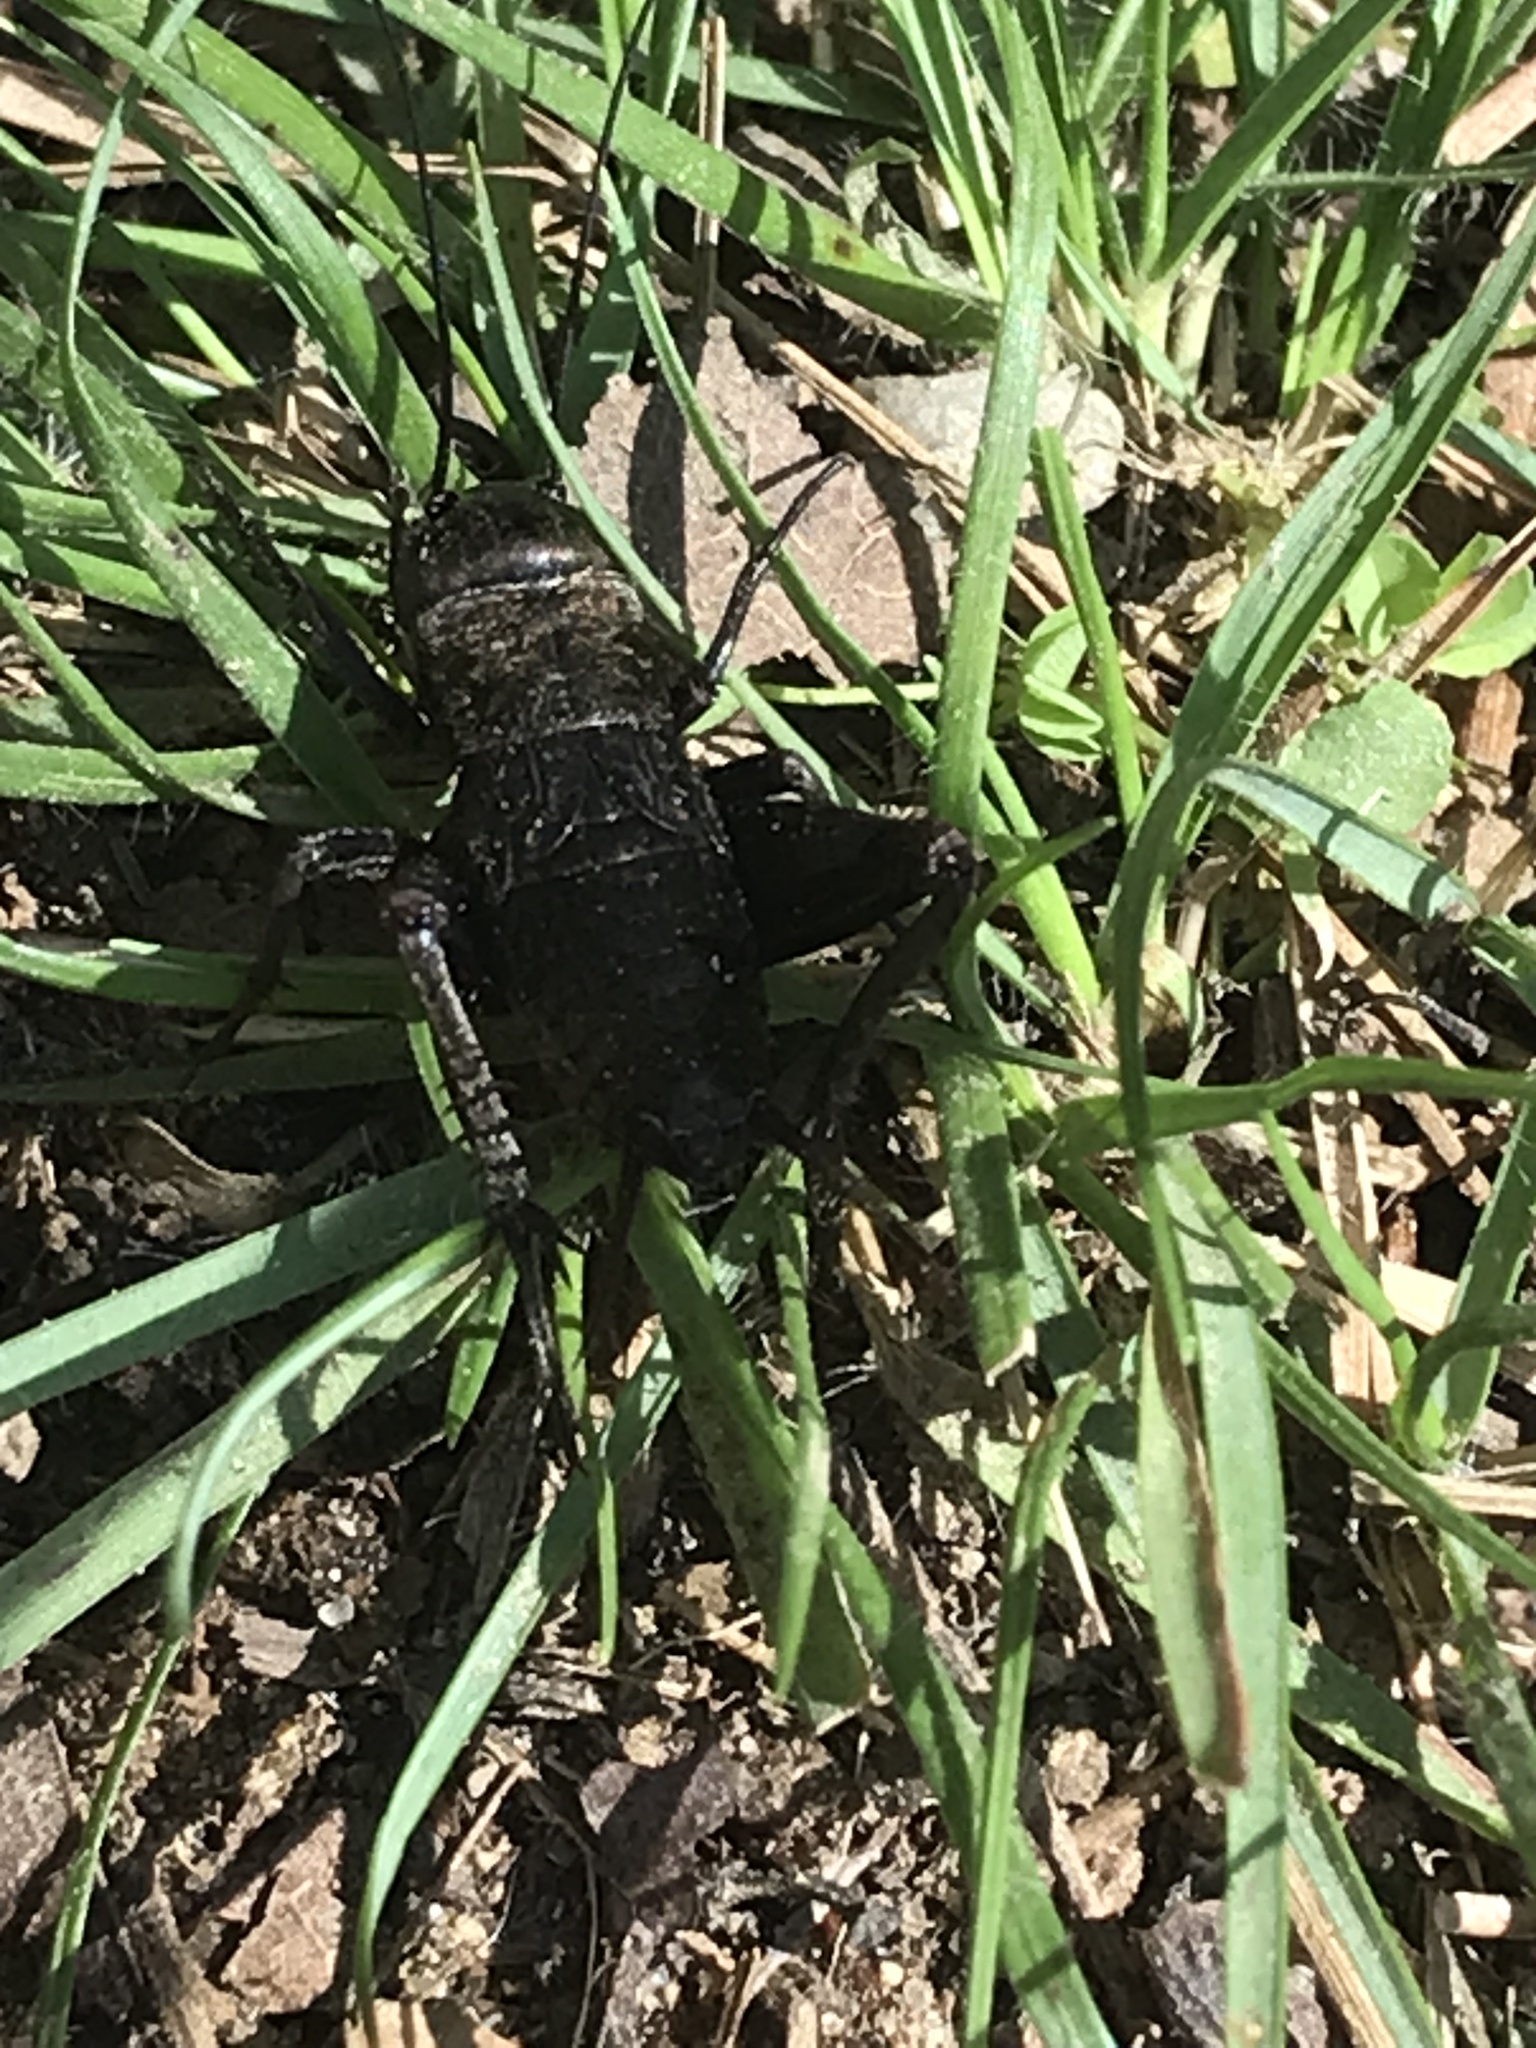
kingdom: Animalia
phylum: Arthropoda
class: Insecta
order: Orthoptera
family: Gryllidae
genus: Gryllus
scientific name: Gryllus pennsylvanicus
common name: Fall field cricket
